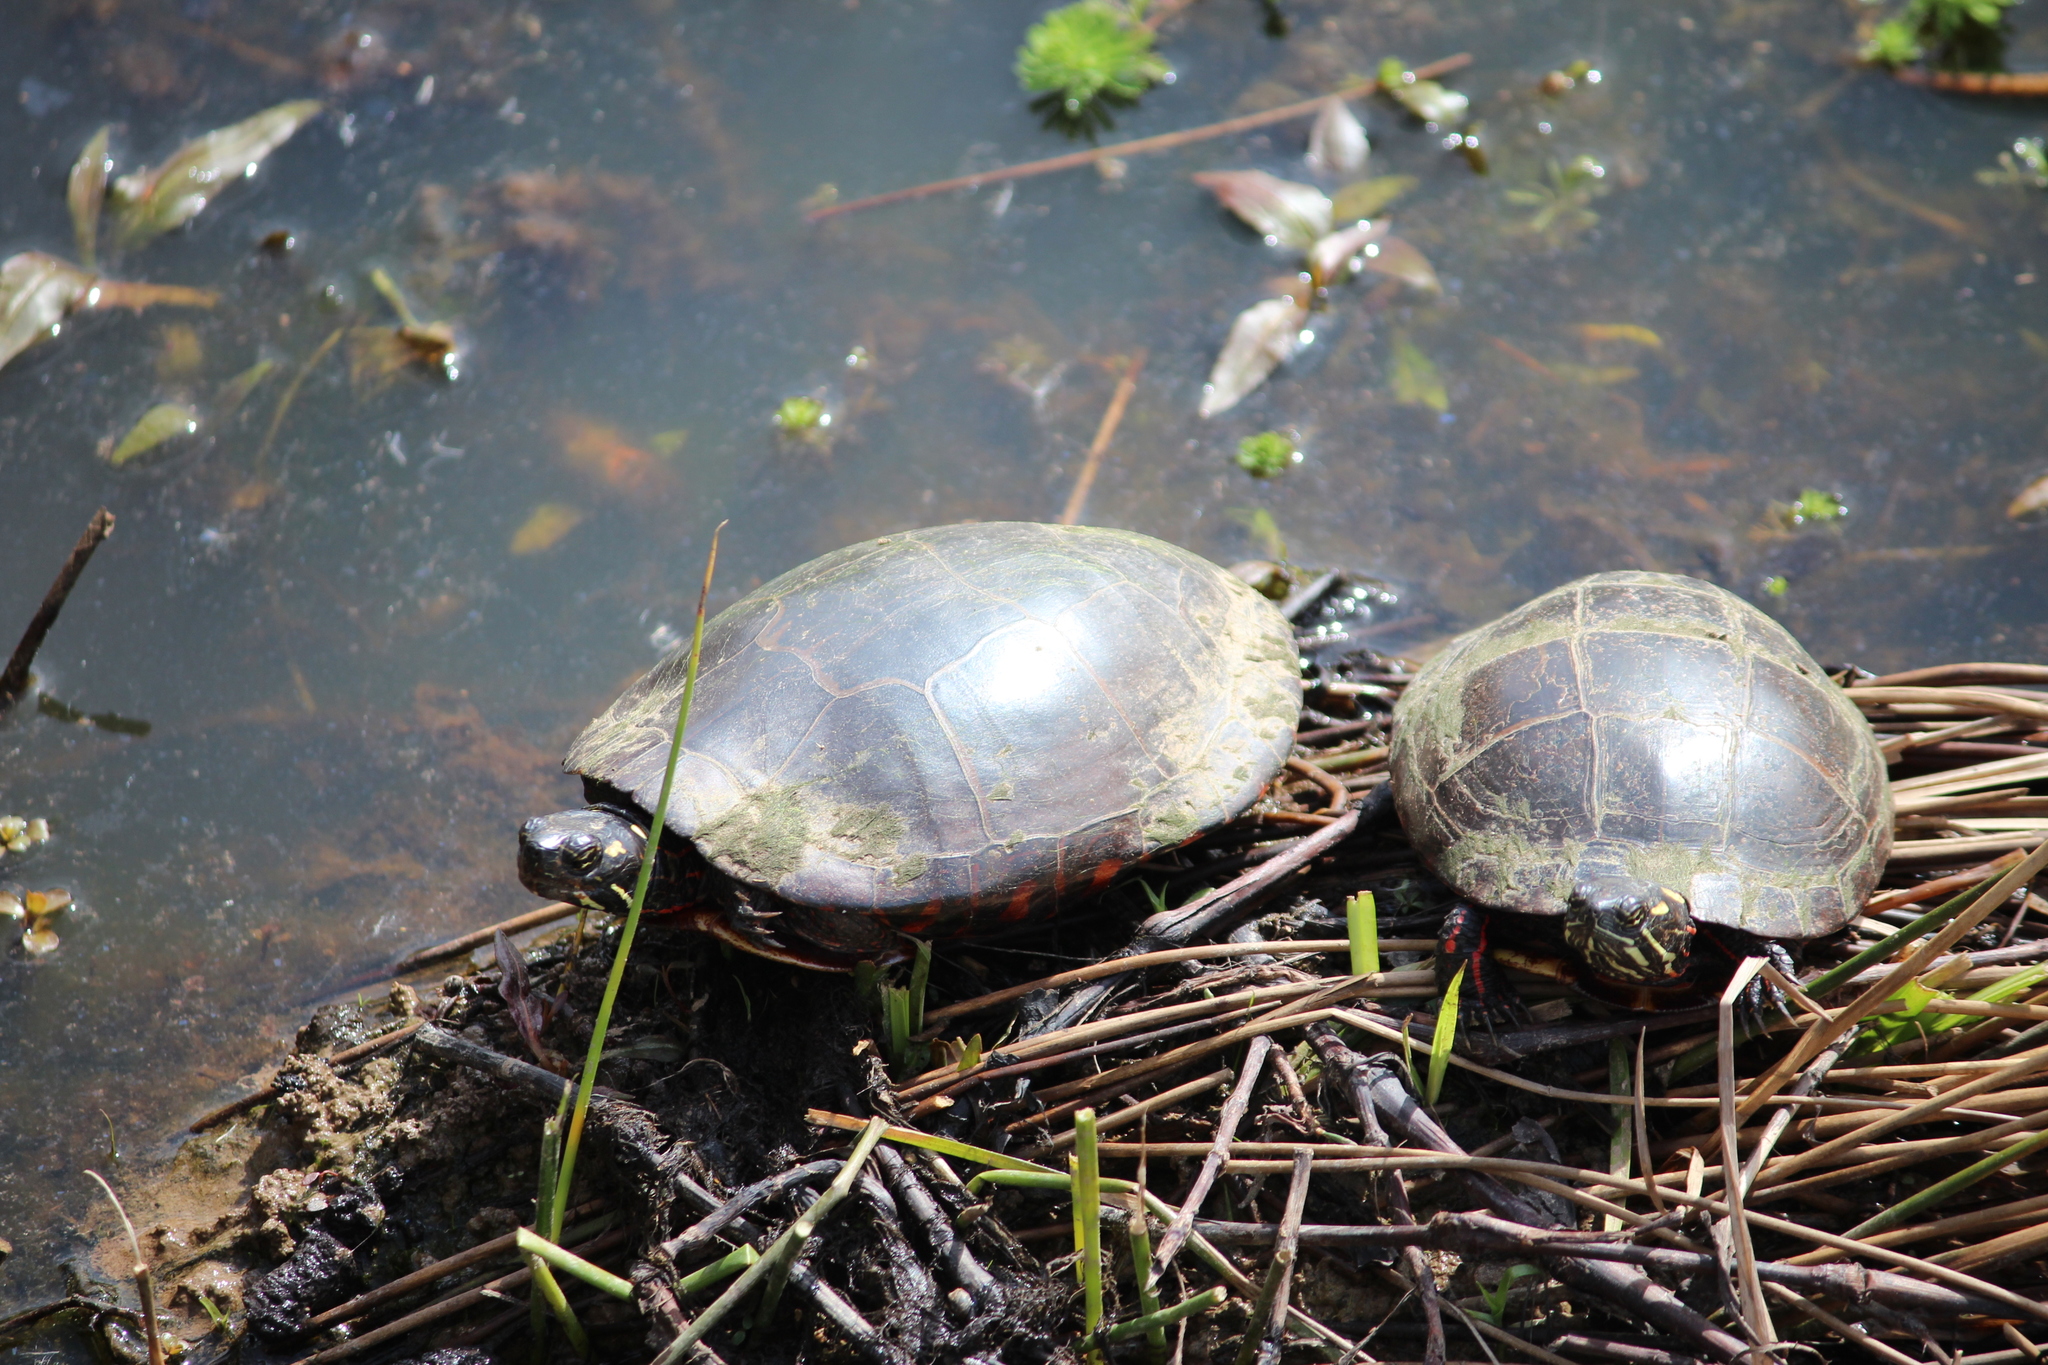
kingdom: Animalia
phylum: Chordata
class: Testudines
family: Emydidae
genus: Chrysemys
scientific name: Chrysemys picta
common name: Painted turtle
